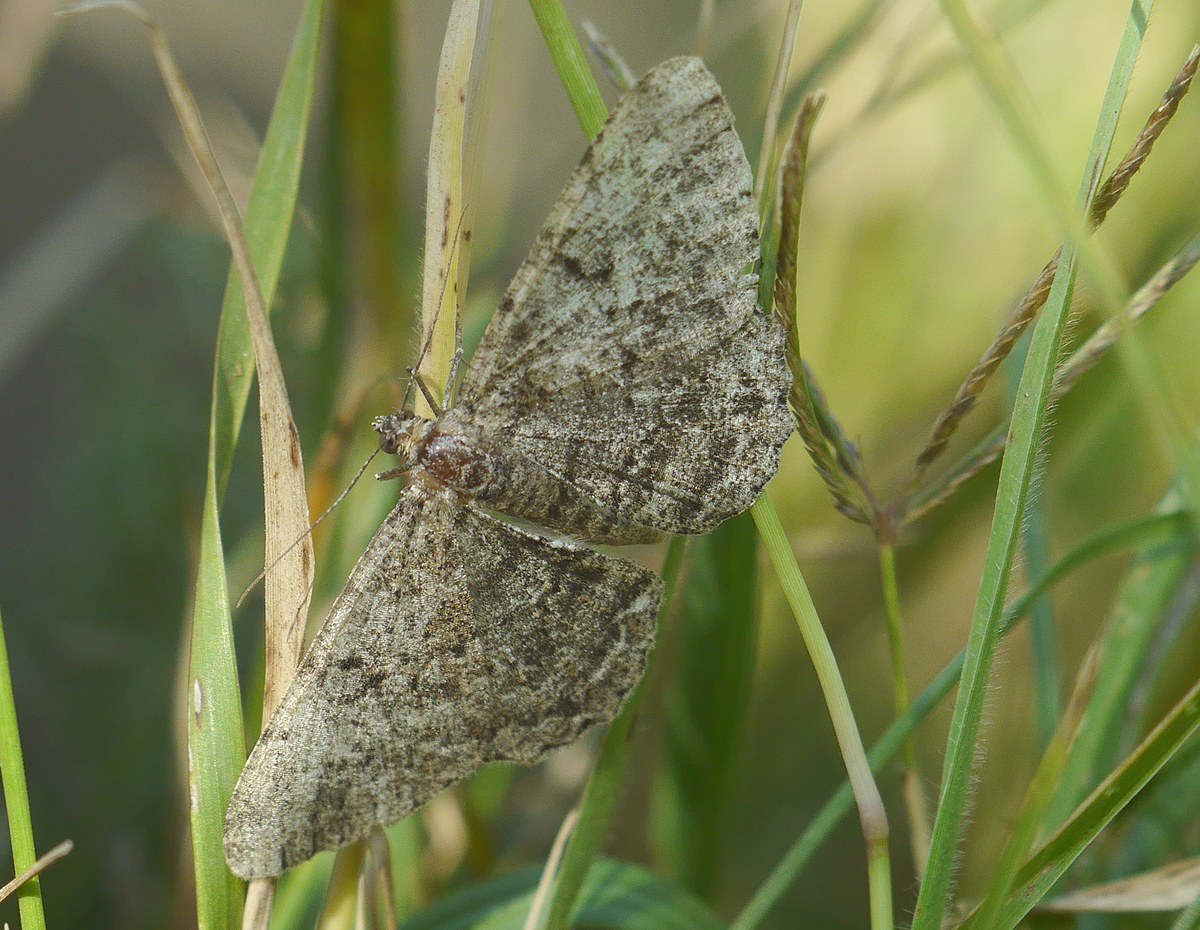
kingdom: Animalia
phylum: Arthropoda
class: Insecta
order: Lepidoptera
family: Geometridae
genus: Peribatodes
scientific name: Peribatodes rhomboidaria
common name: Willow beauty
